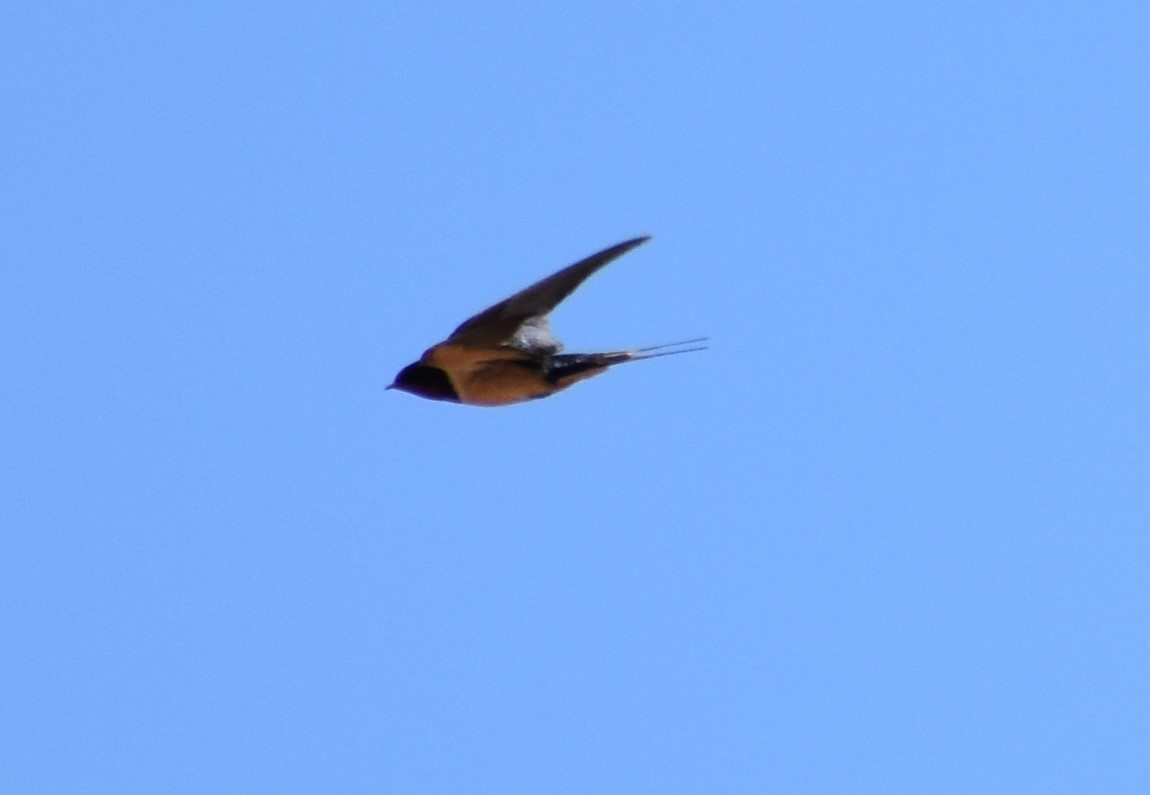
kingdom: Animalia
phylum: Chordata
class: Aves
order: Passeriformes
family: Hirundinidae
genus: Hirundo
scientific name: Hirundo rustica
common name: Barn swallow
